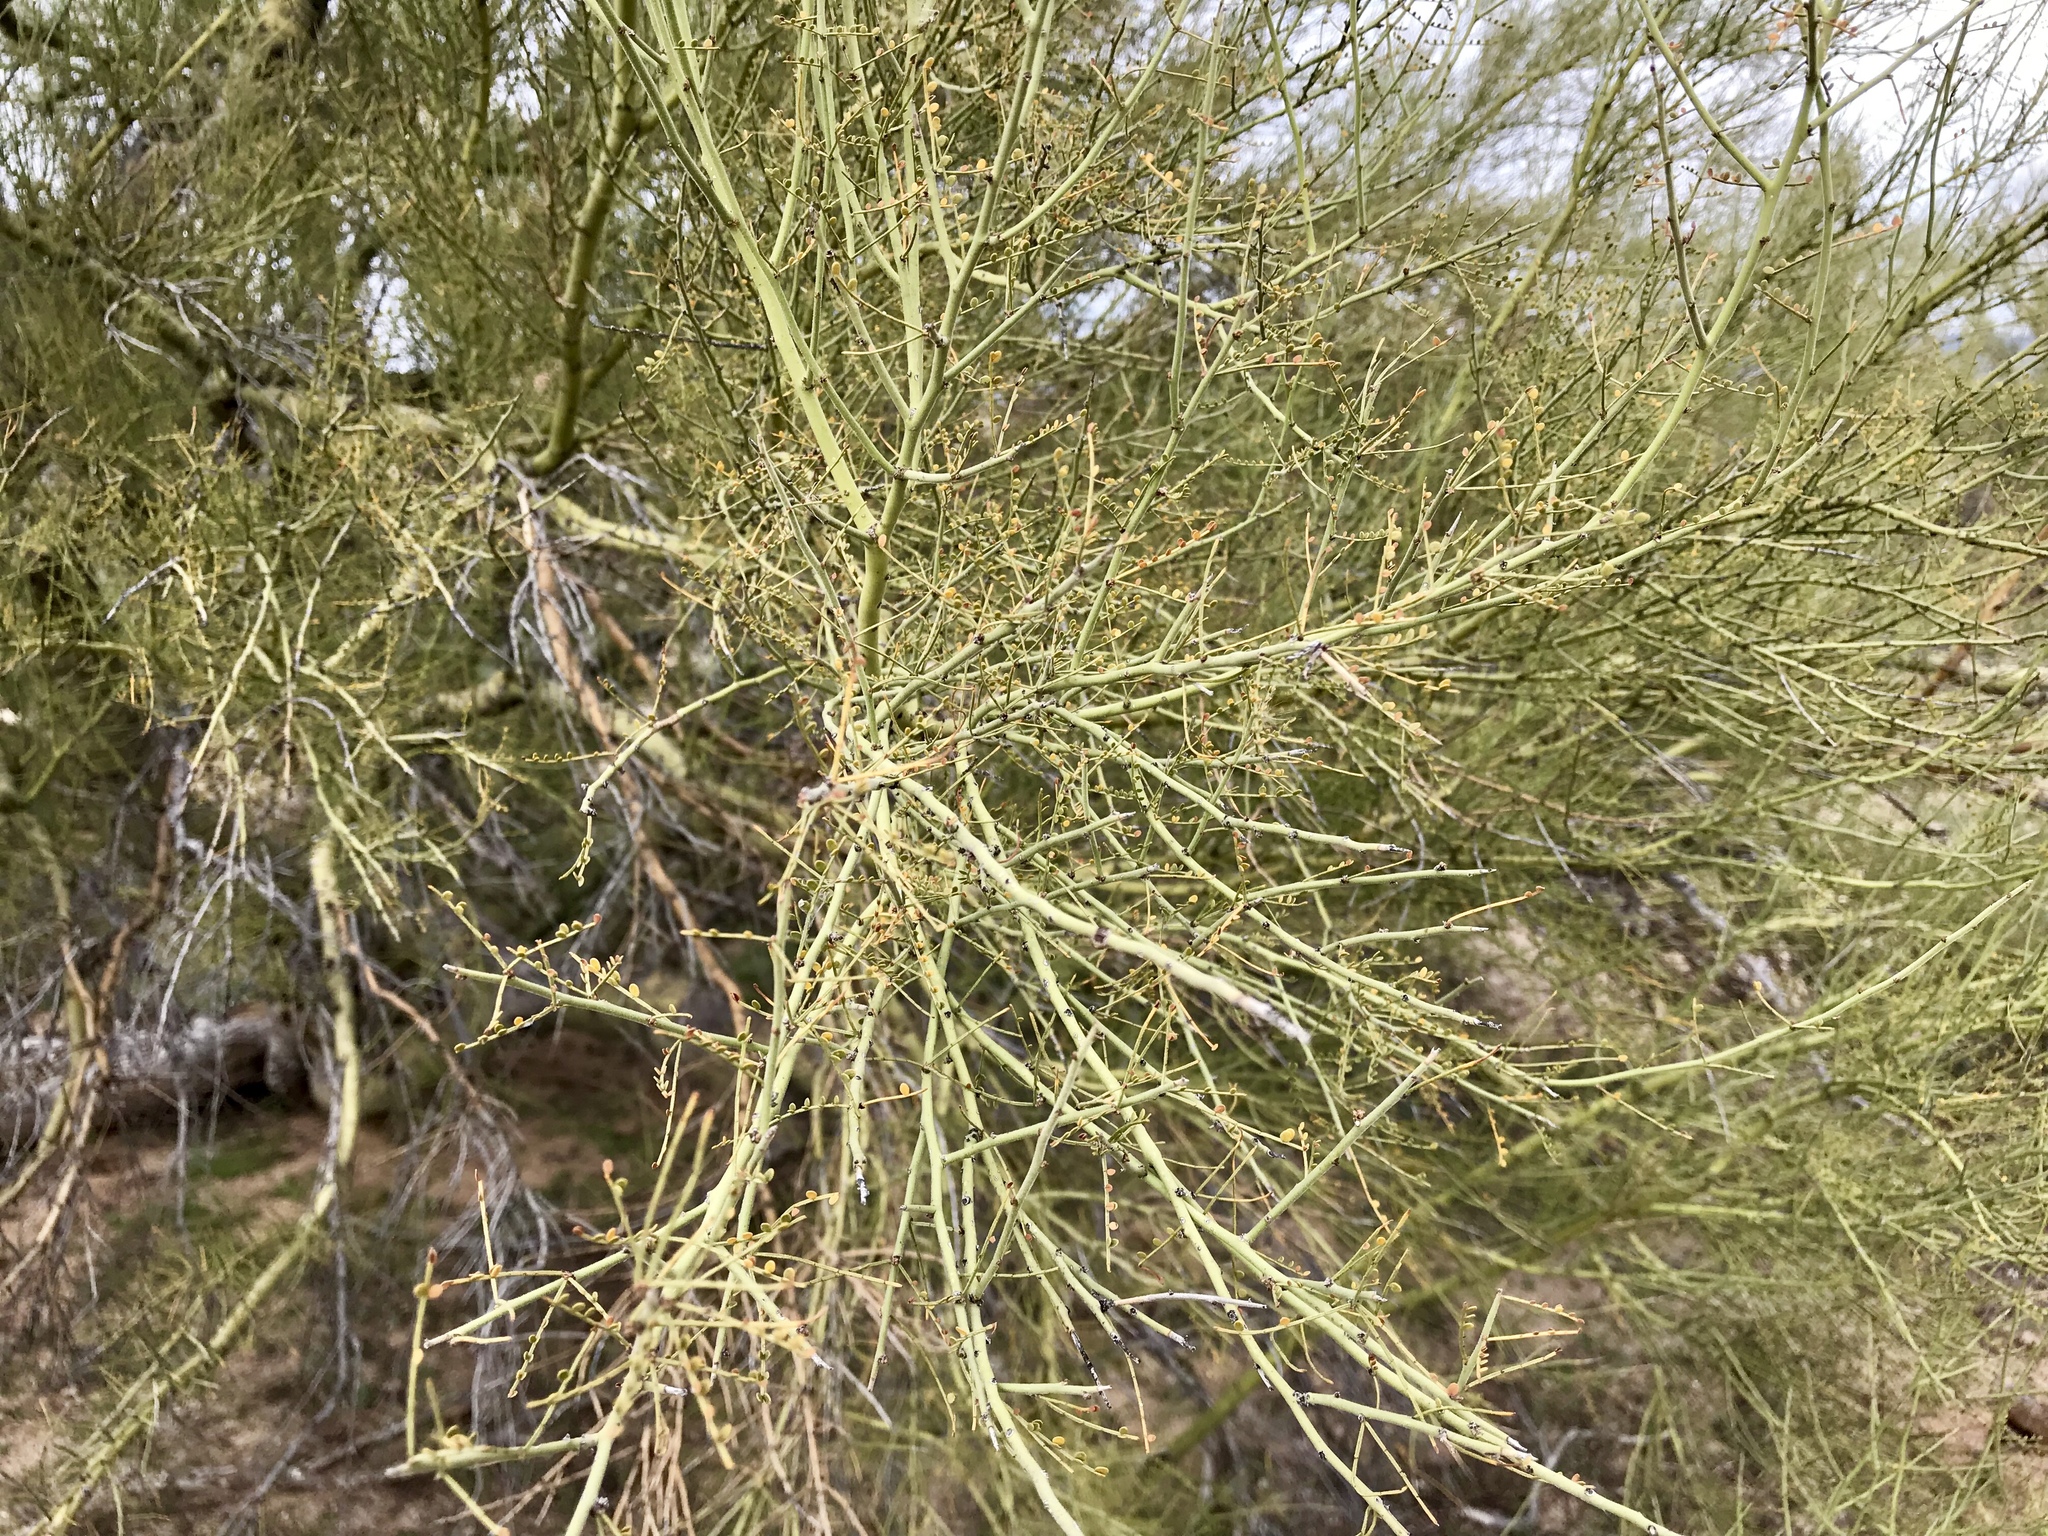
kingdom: Plantae
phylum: Tracheophyta
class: Magnoliopsida
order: Fabales
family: Fabaceae
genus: Parkinsonia
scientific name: Parkinsonia microphylla
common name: Yellow paloverde
